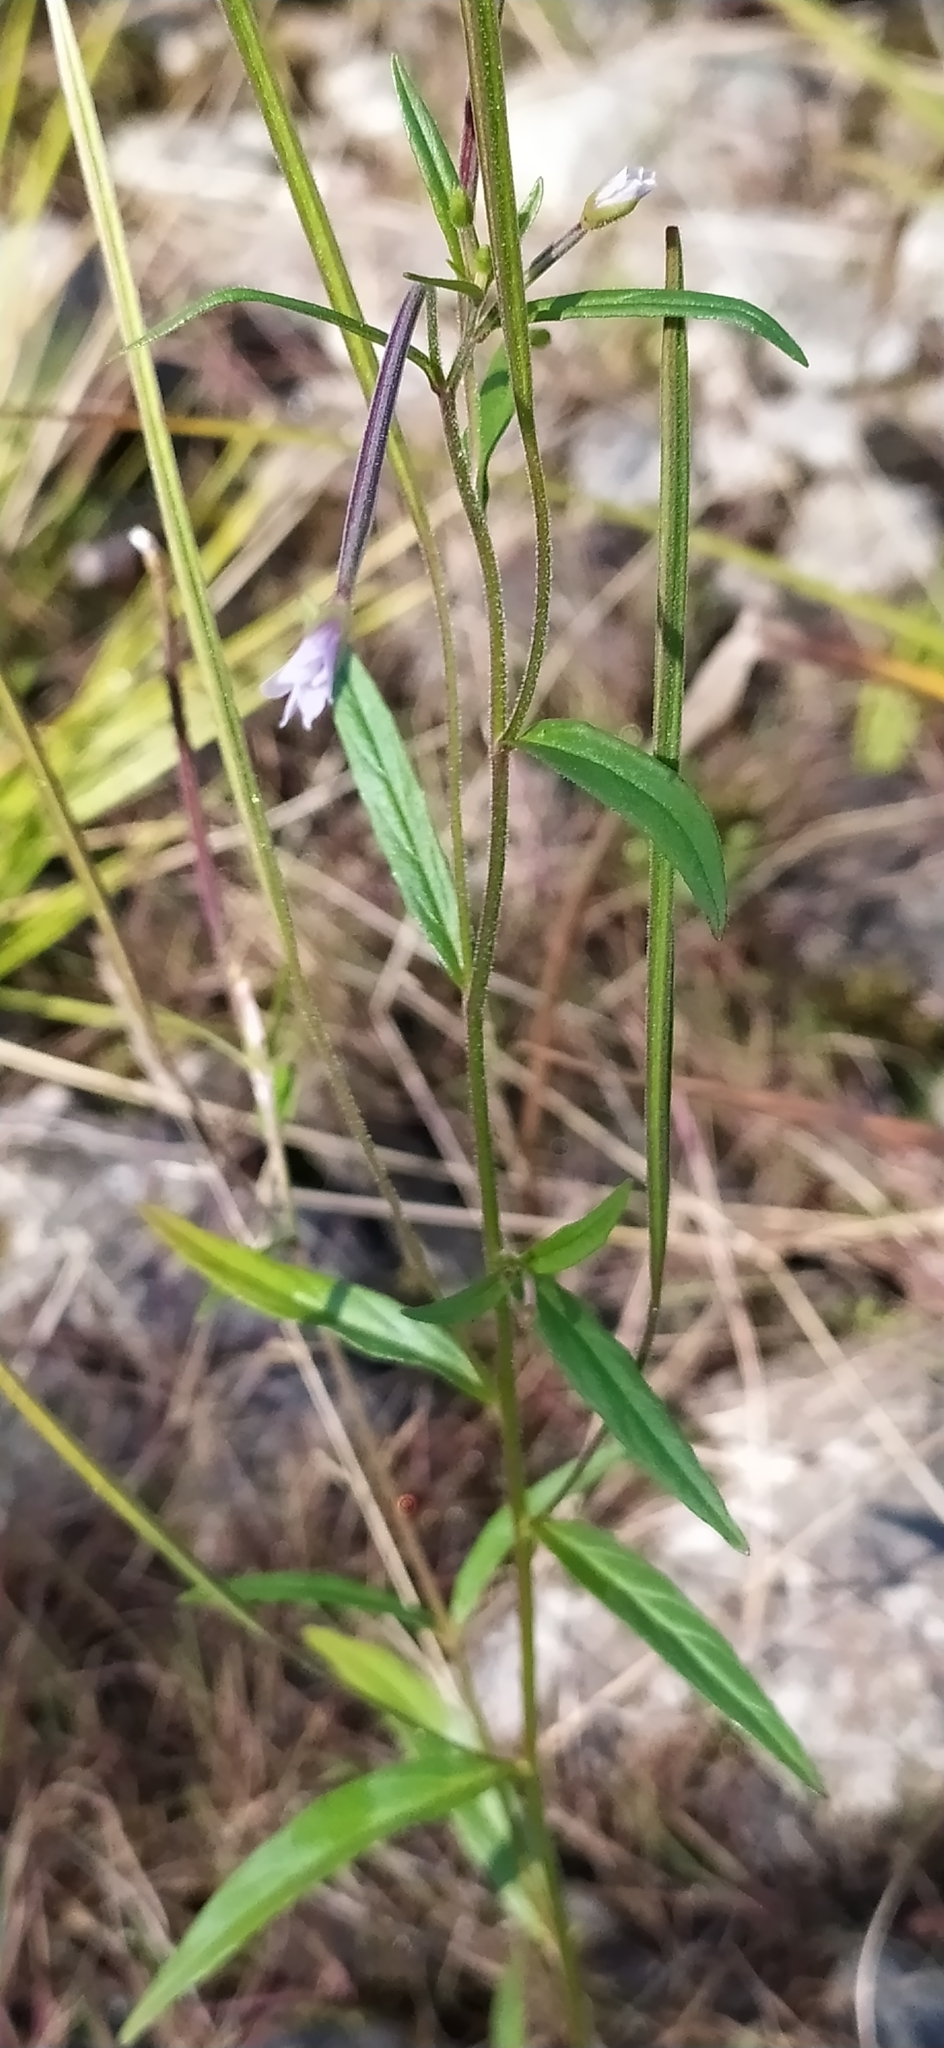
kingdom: Plantae
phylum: Tracheophyta
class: Magnoliopsida
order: Myrtales
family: Onagraceae
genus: Epilobium
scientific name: Epilobium palustre
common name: Marsh willowherb
